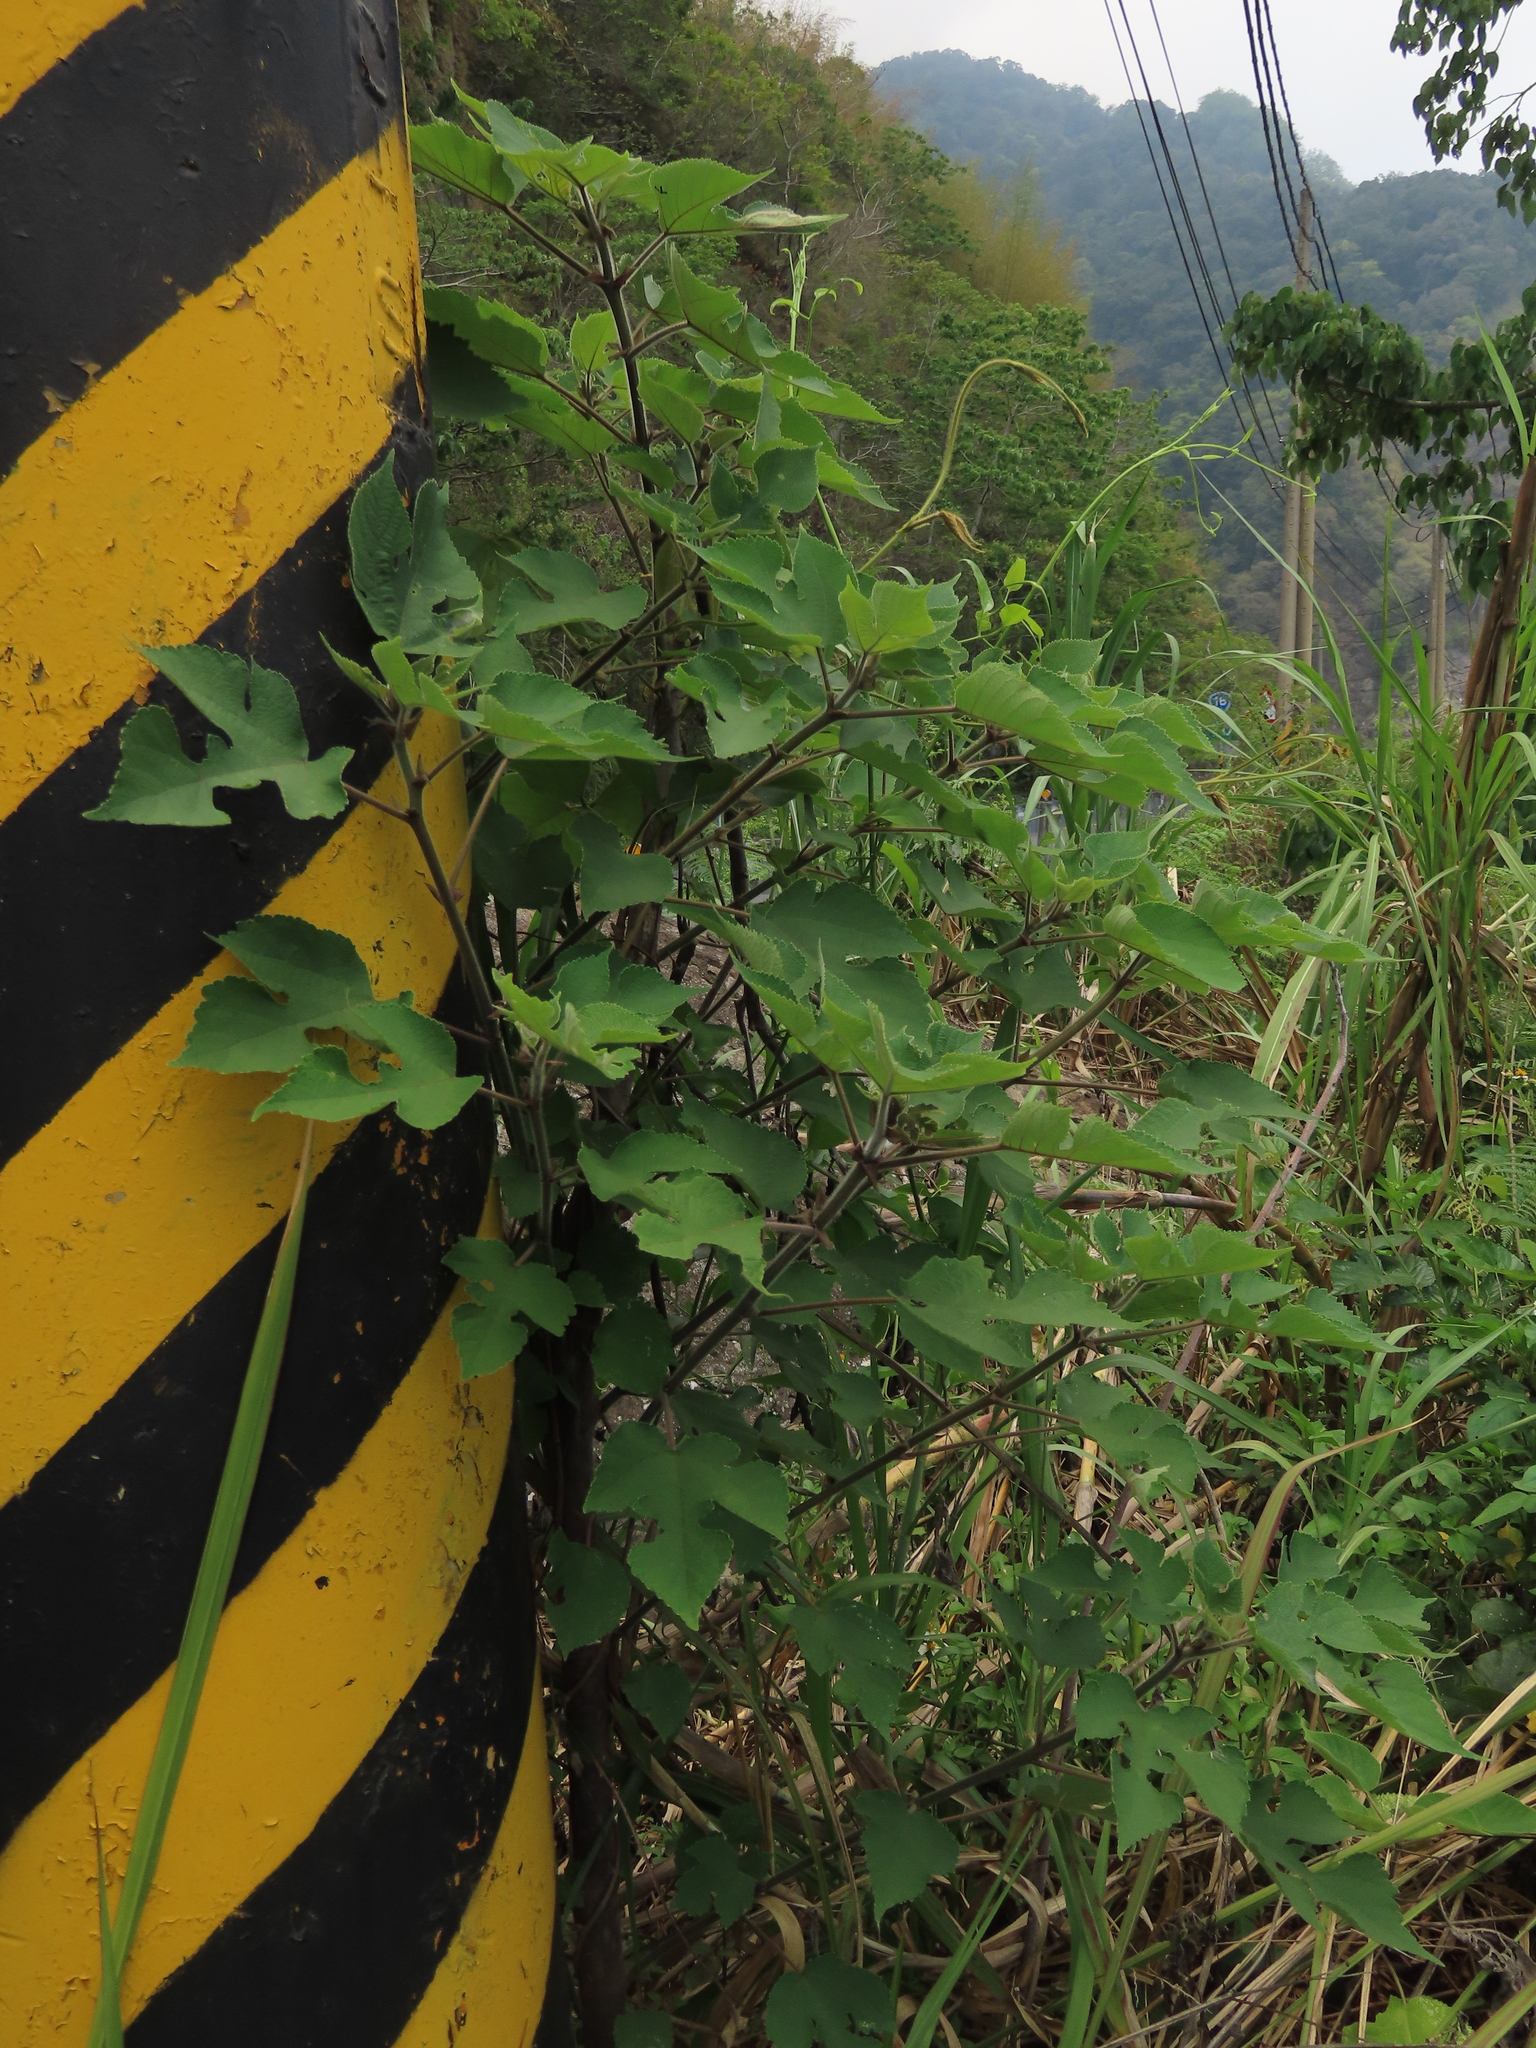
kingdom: Plantae
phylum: Tracheophyta
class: Magnoliopsida
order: Rosales
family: Moraceae
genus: Broussonetia
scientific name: Broussonetia papyrifera
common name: Paper mulberry
